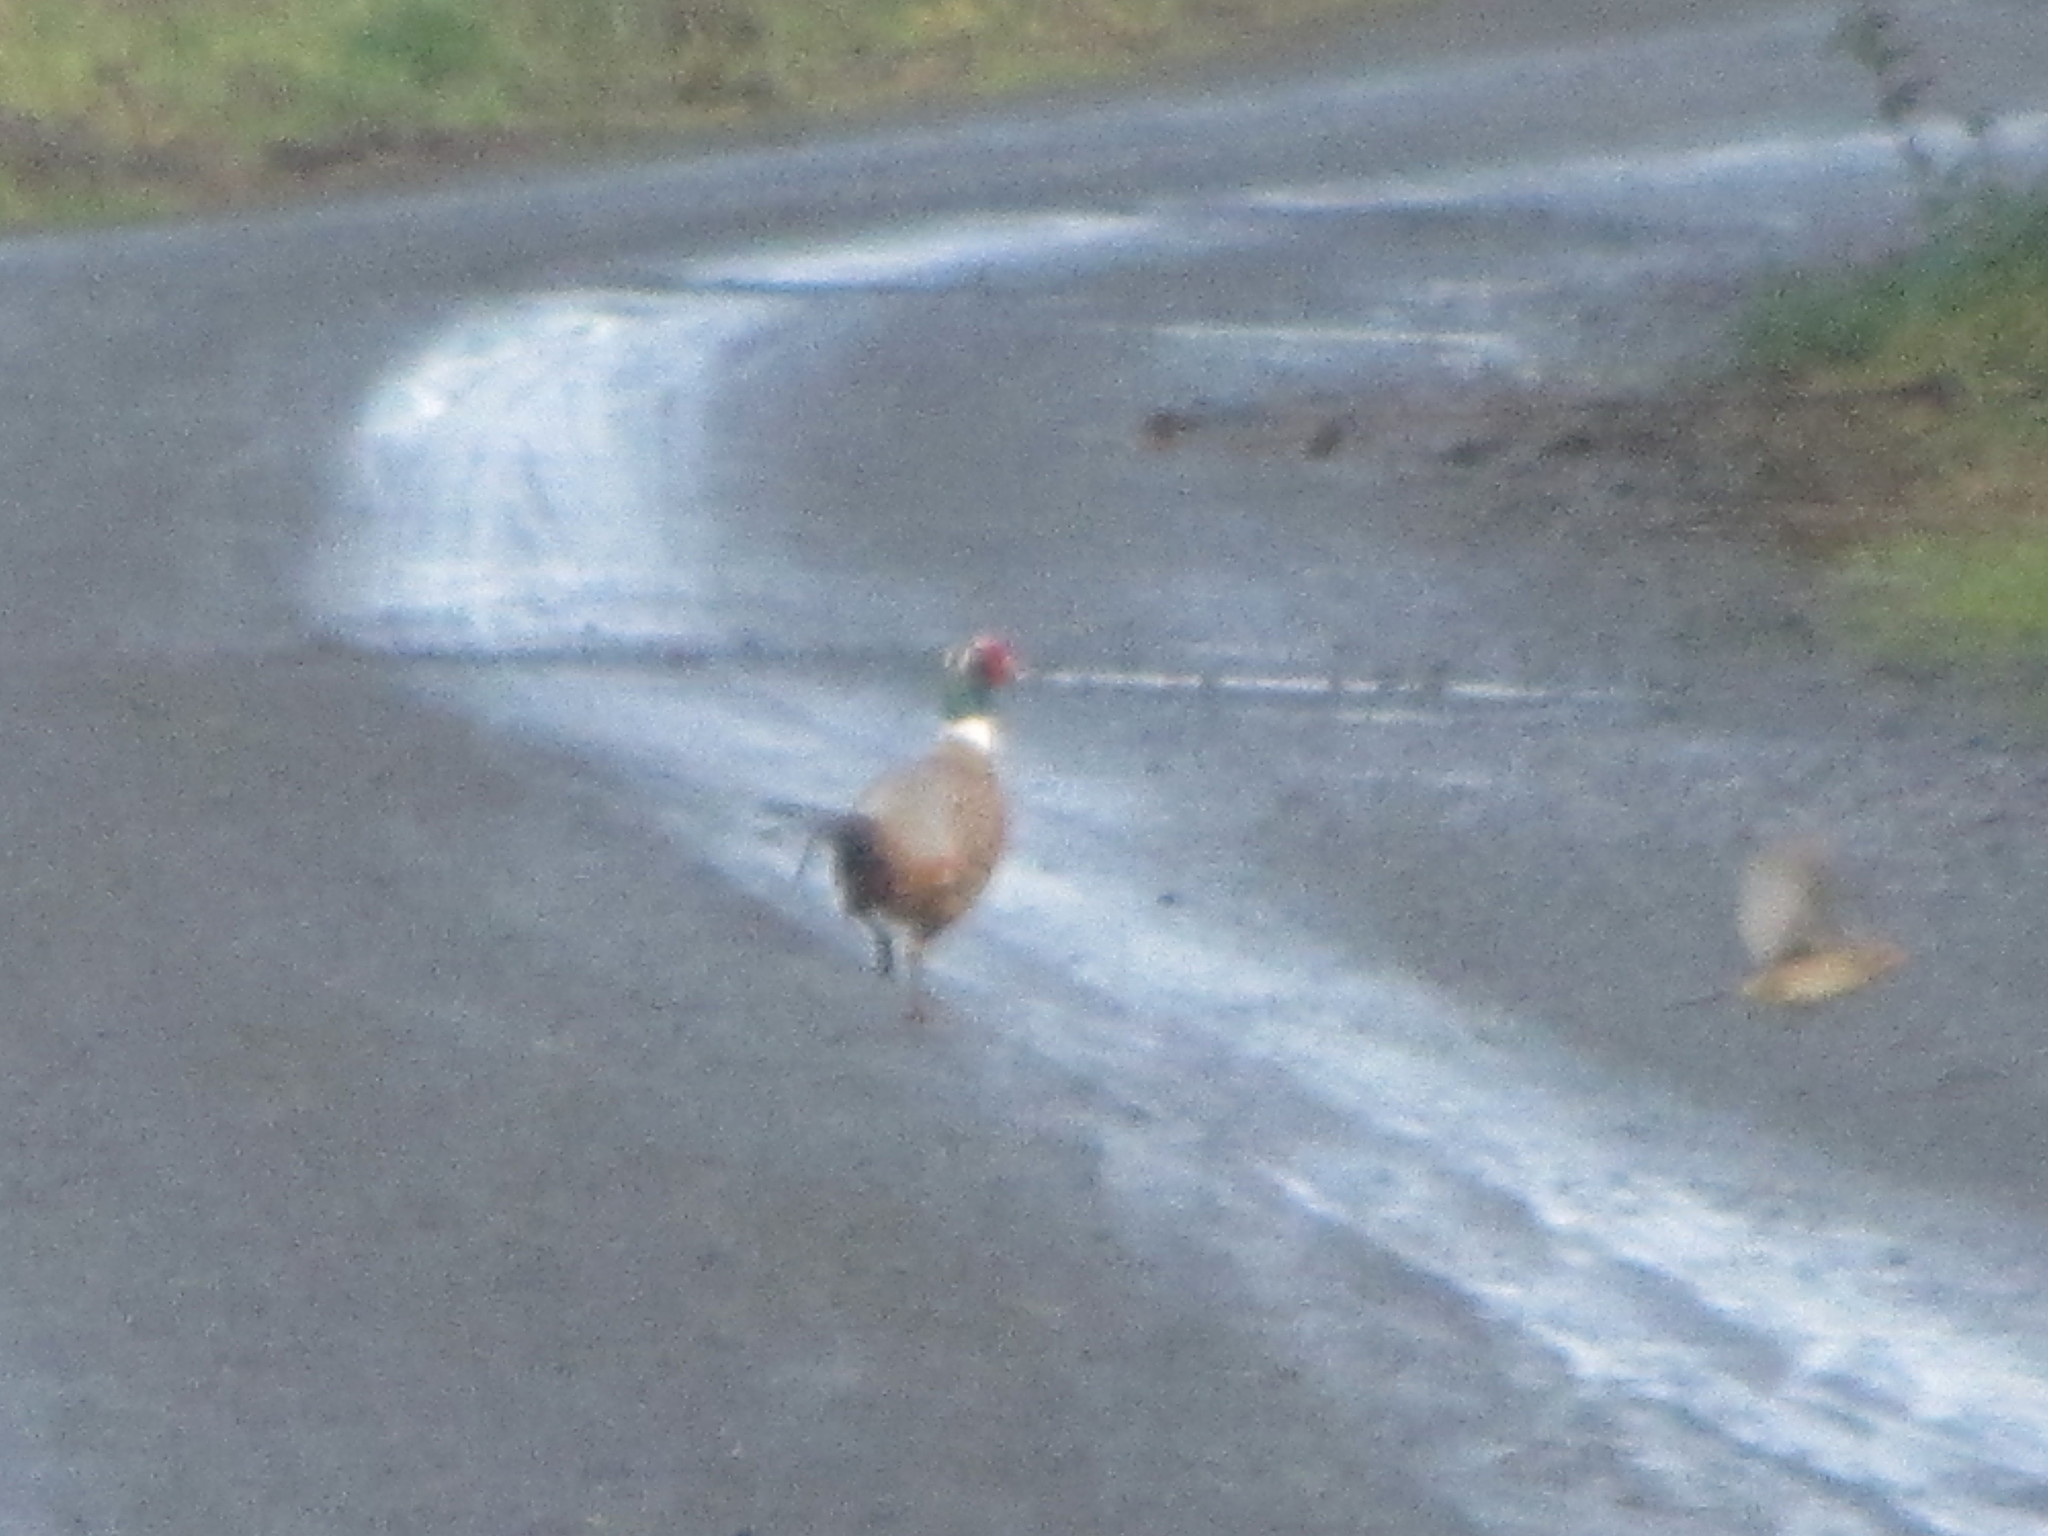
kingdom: Animalia
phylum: Chordata
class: Aves
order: Galliformes
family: Phasianidae
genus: Phasianus
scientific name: Phasianus colchicus
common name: Common pheasant
